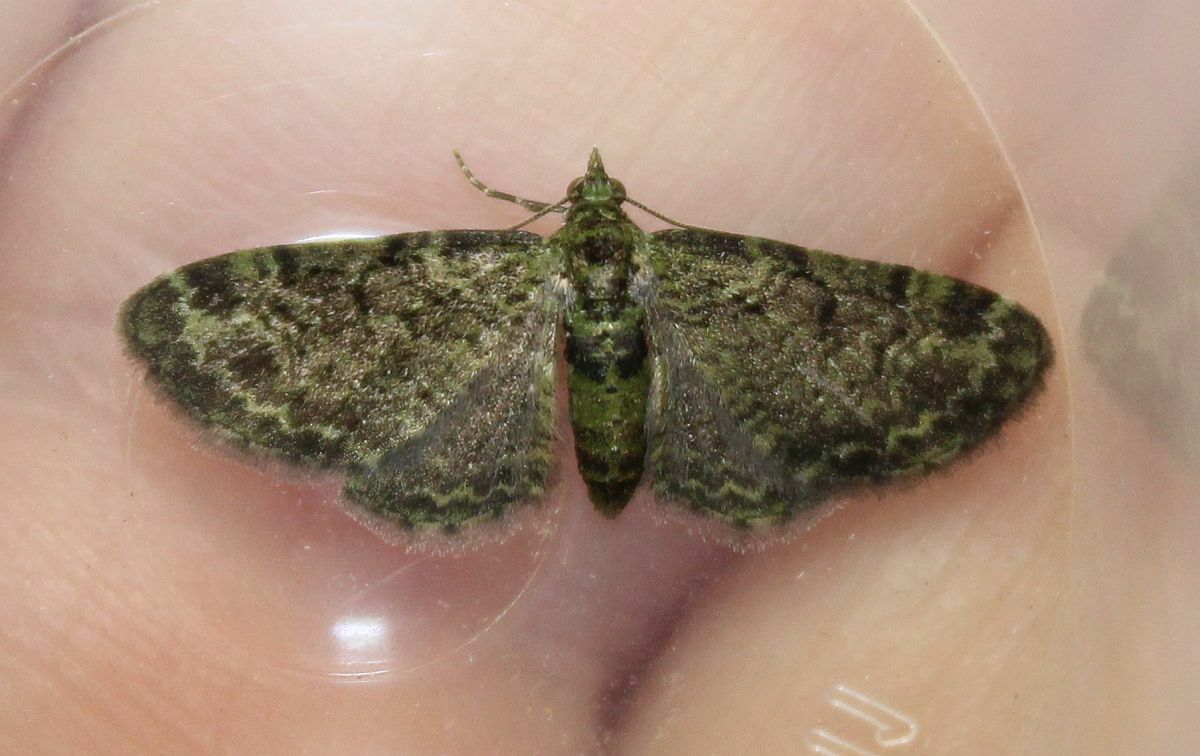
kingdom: Animalia
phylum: Arthropoda
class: Insecta
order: Lepidoptera
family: Geometridae
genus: Pasiphila
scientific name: Pasiphila rectangulata
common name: Green pug
